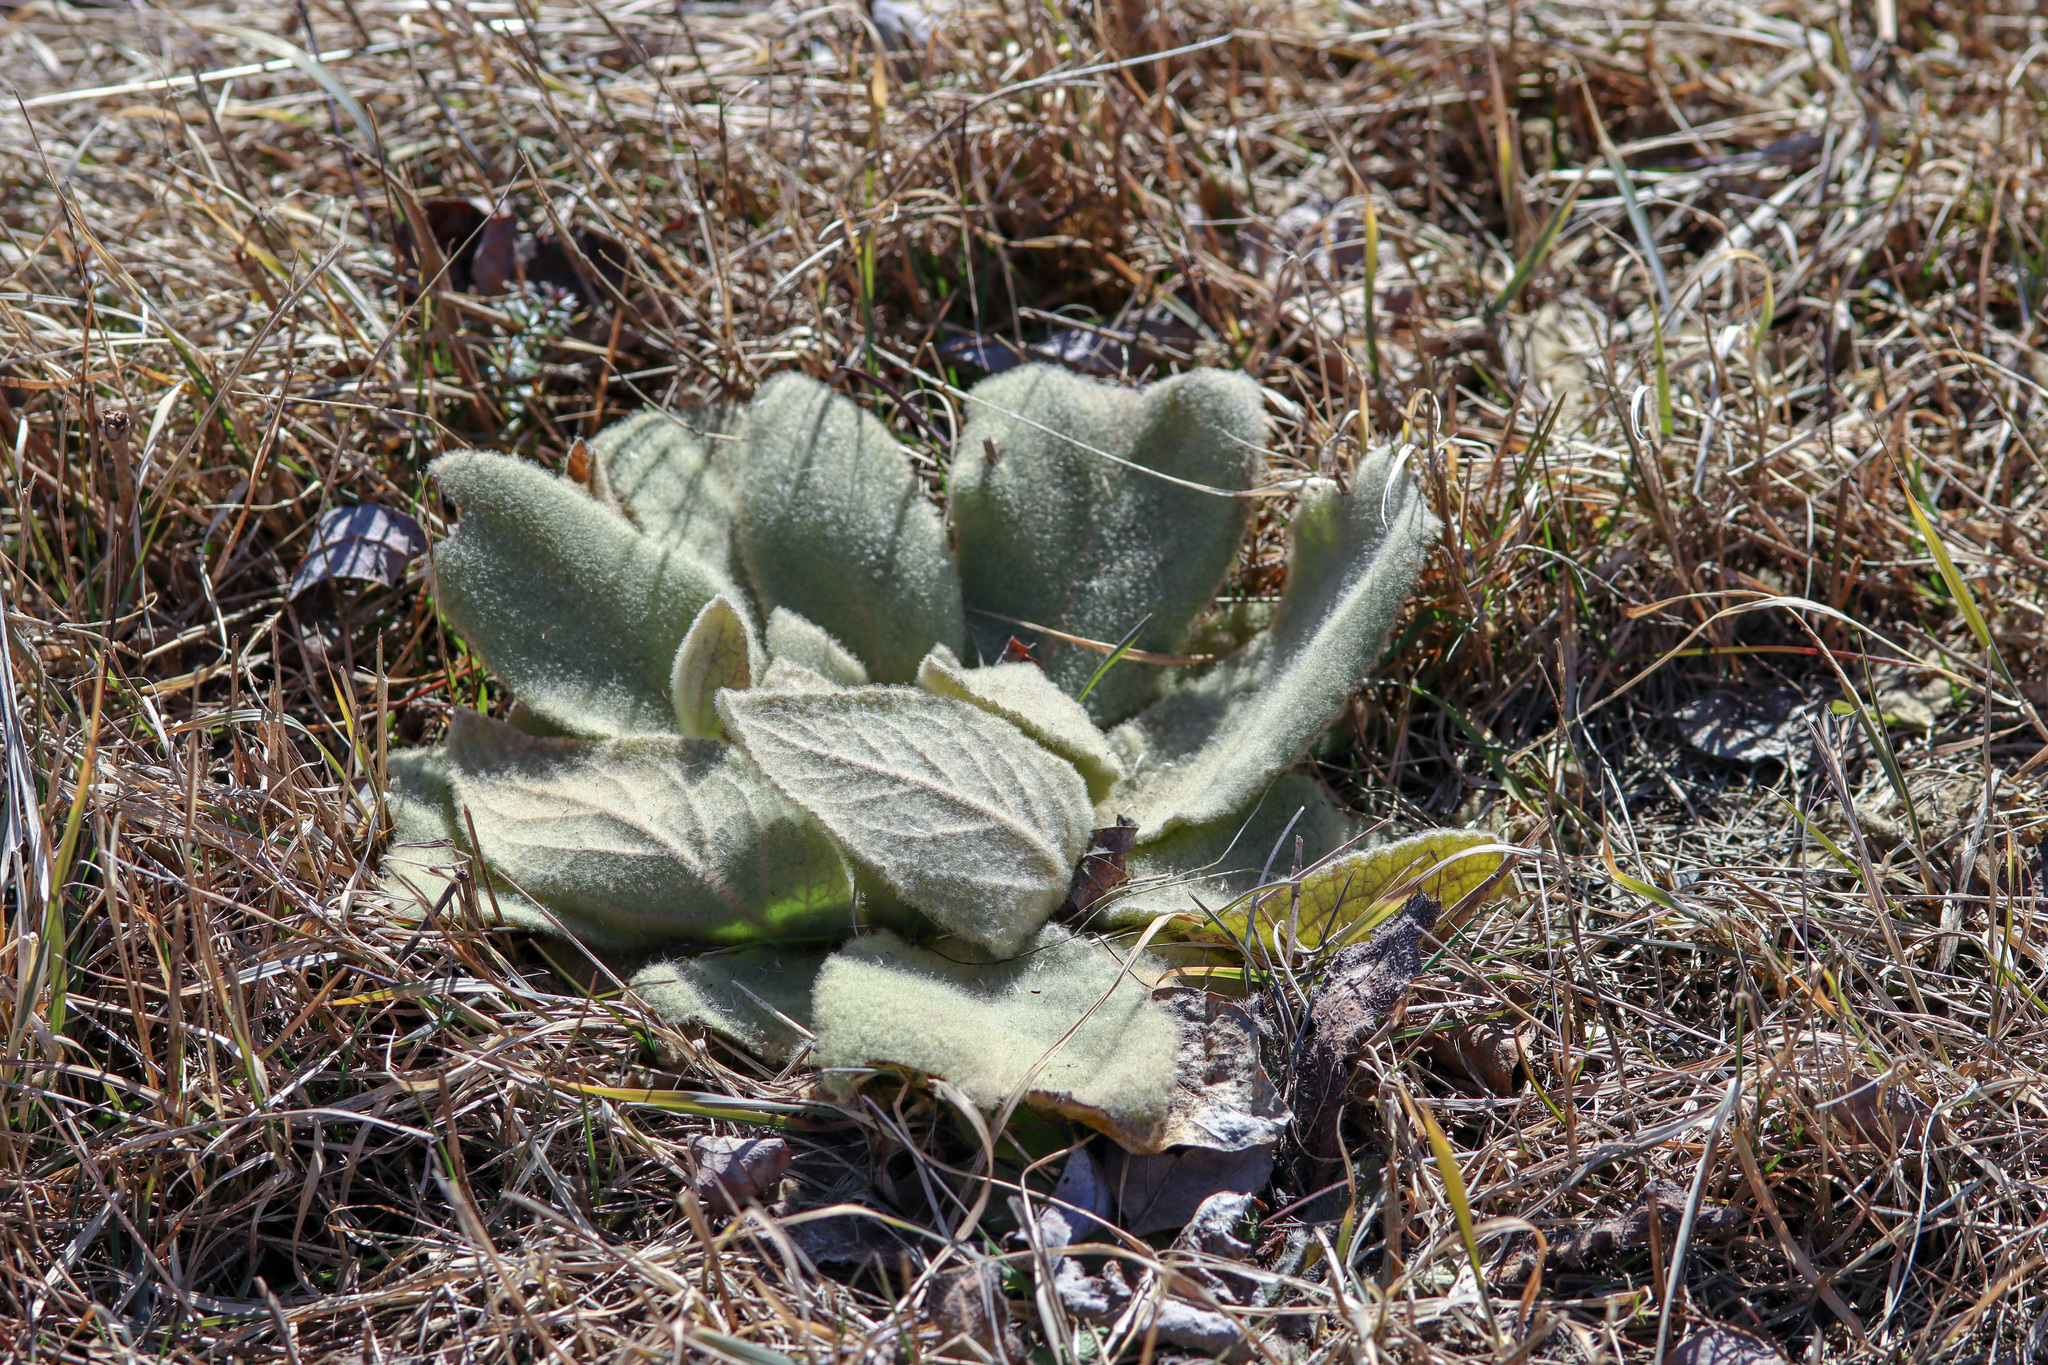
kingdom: Plantae
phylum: Tracheophyta
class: Magnoliopsida
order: Lamiales
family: Scrophulariaceae
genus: Verbascum
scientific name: Verbascum thapsus
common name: Common mullein
